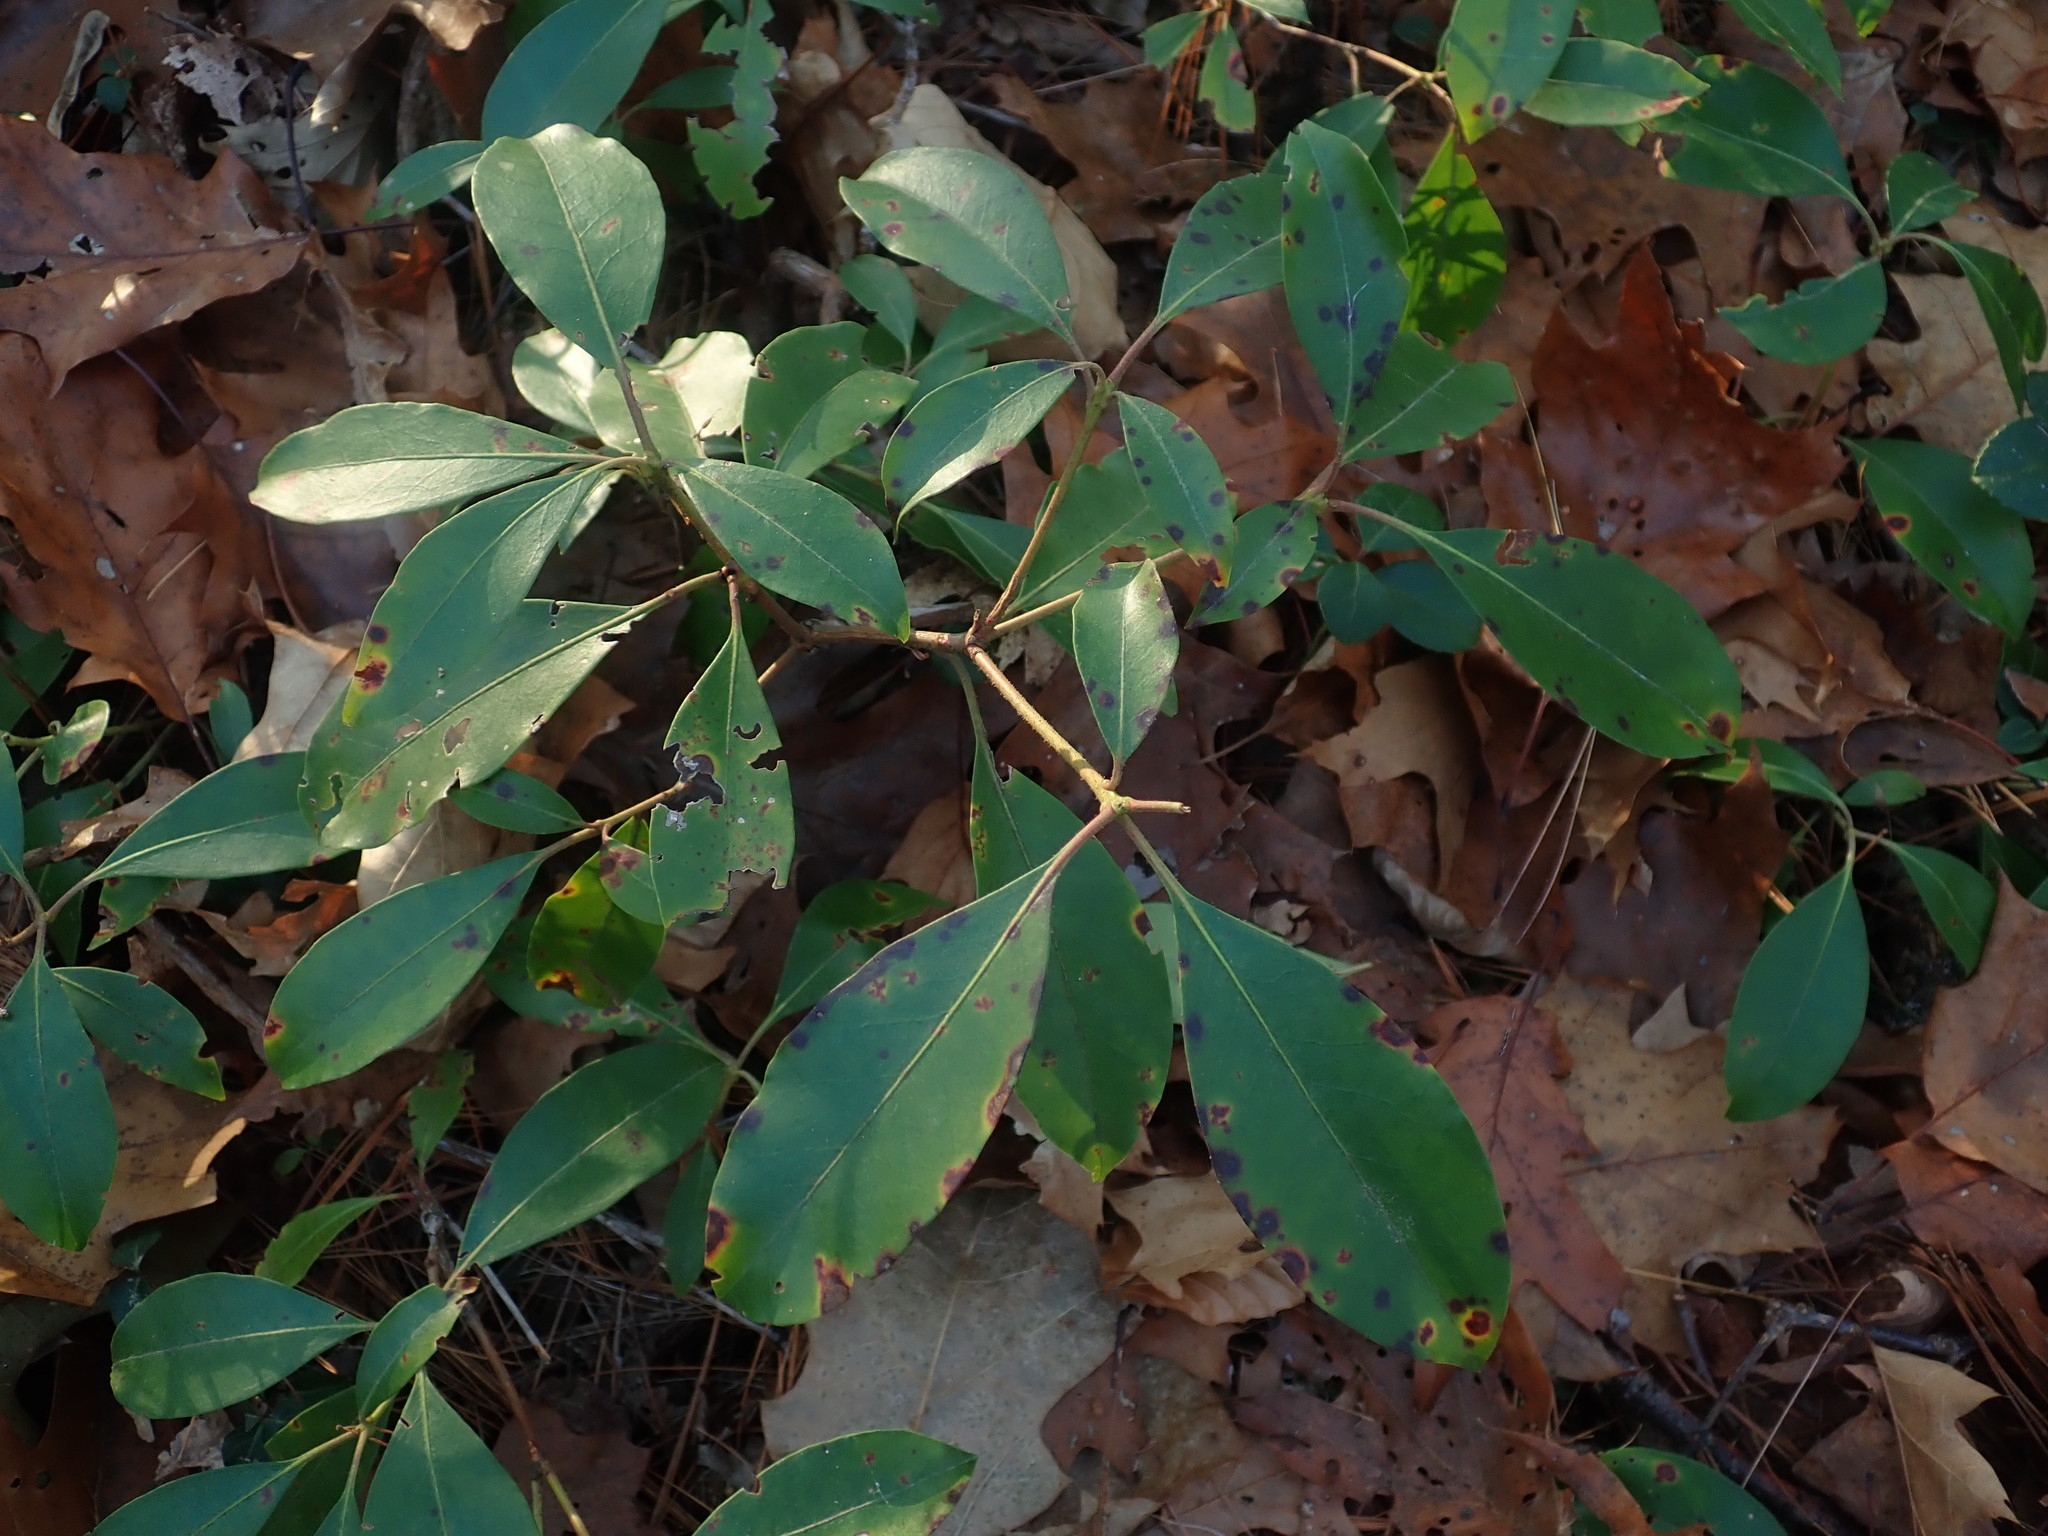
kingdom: Plantae
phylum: Tracheophyta
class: Magnoliopsida
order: Ericales
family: Ericaceae
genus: Kalmia
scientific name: Kalmia latifolia
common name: Mountain-laurel
